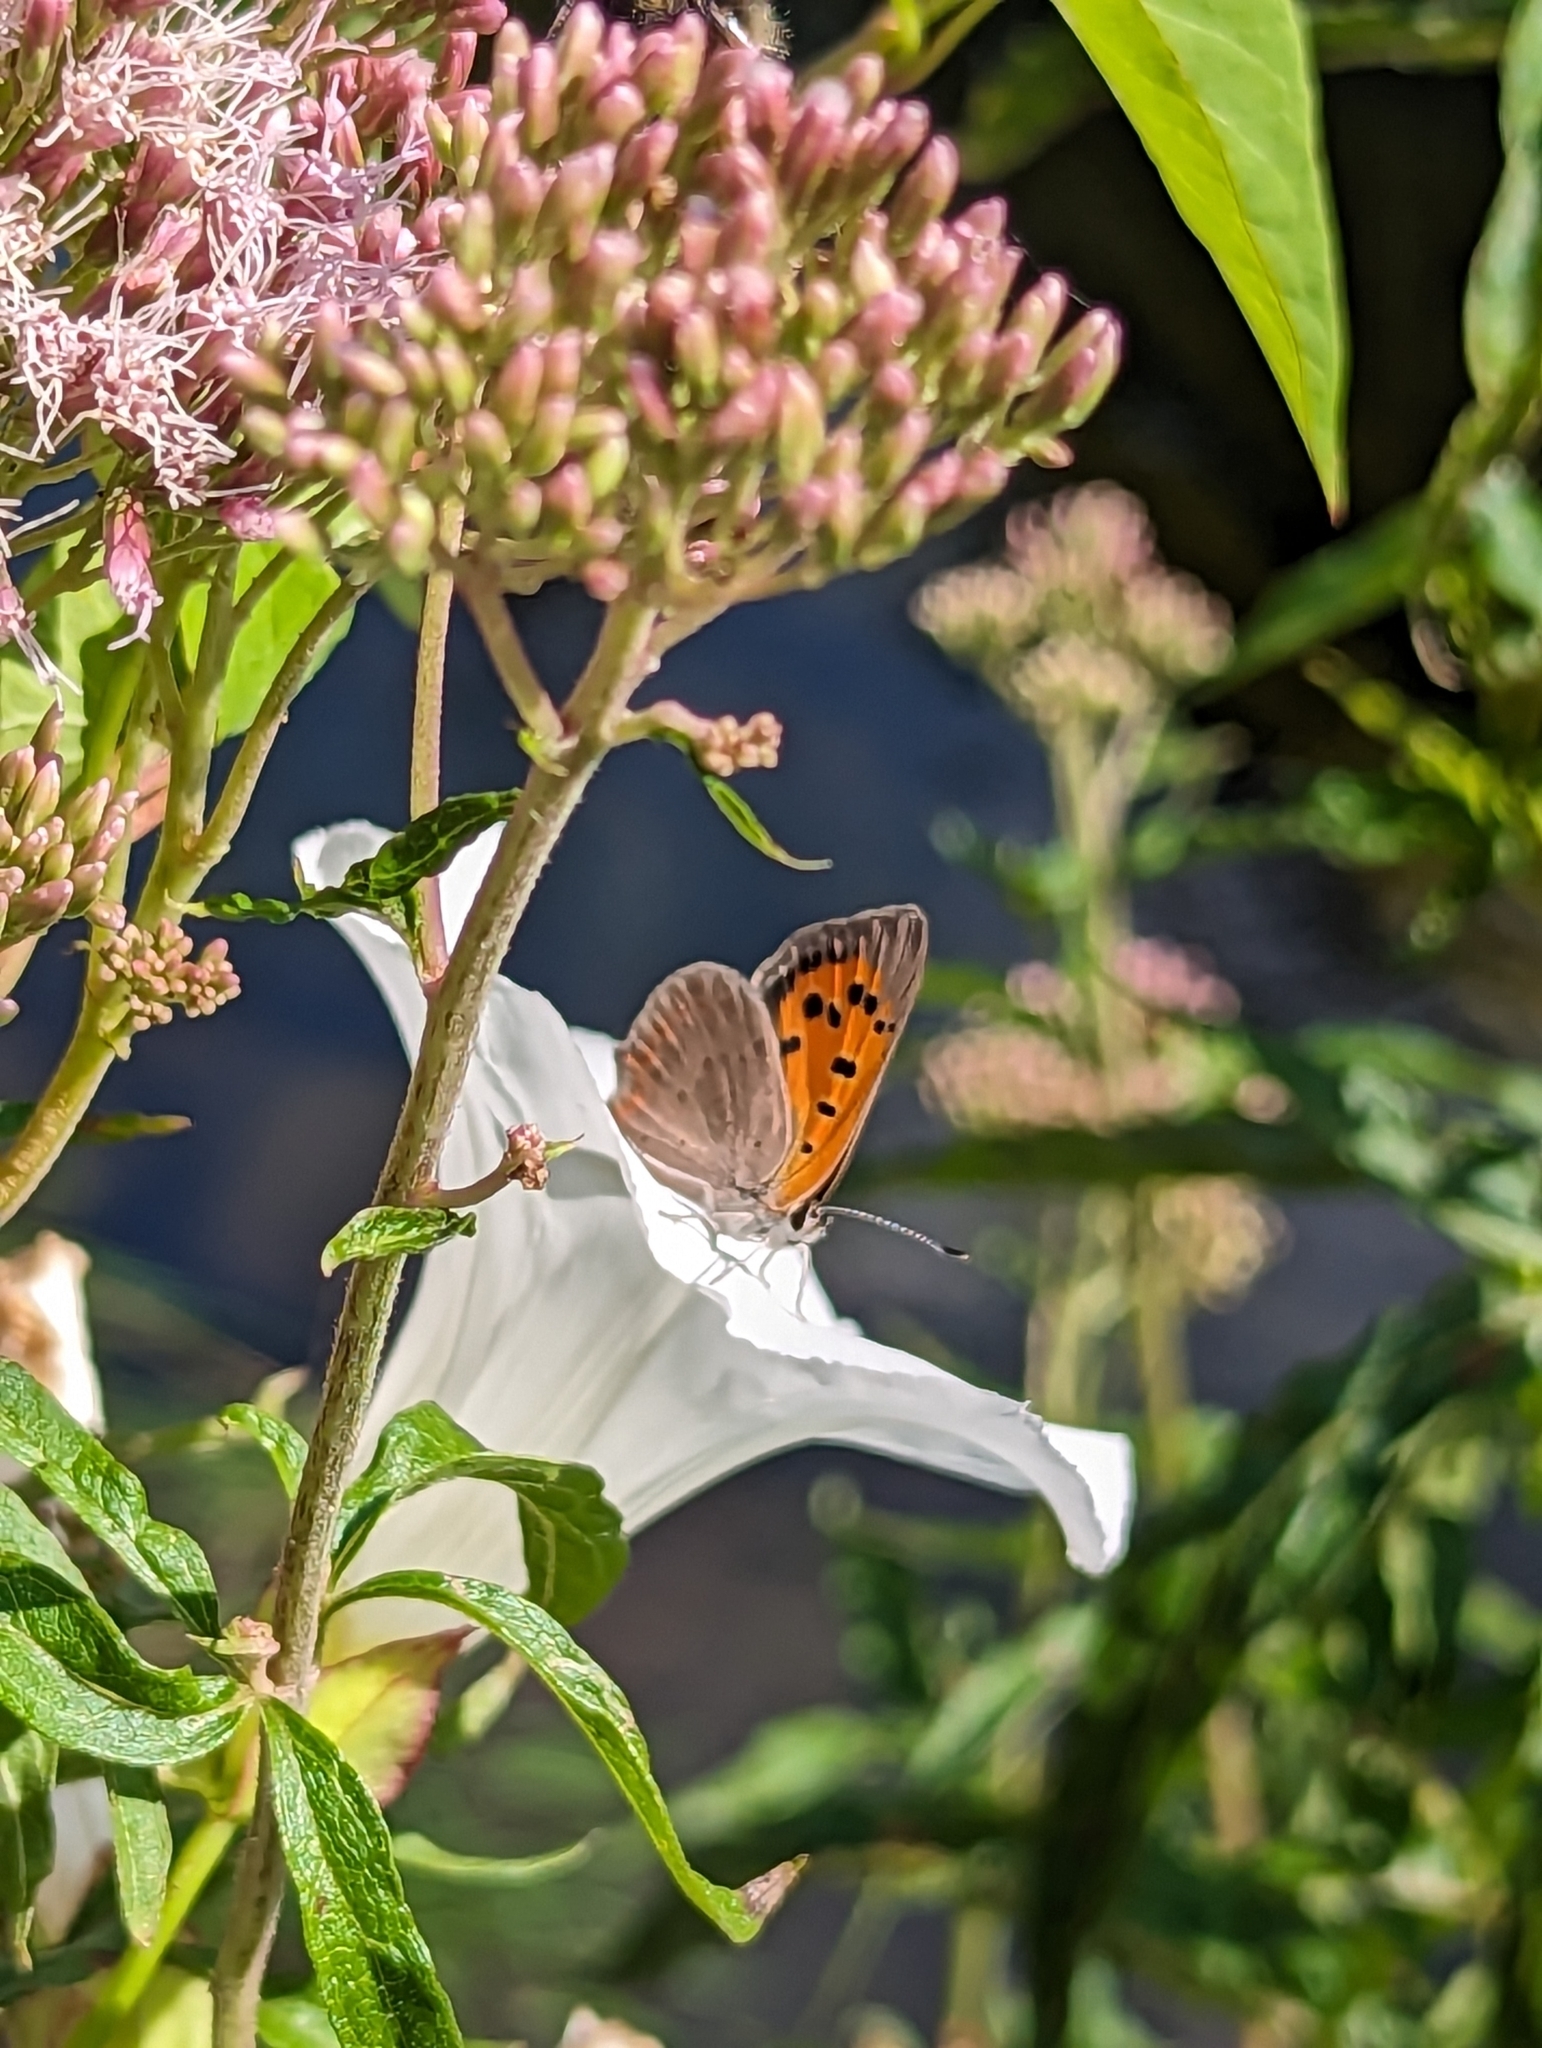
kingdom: Animalia
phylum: Arthropoda
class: Insecta
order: Lepidoptera
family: Lycaenidae
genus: Lycaena
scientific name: Lycaena phlaeas
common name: Small copper
